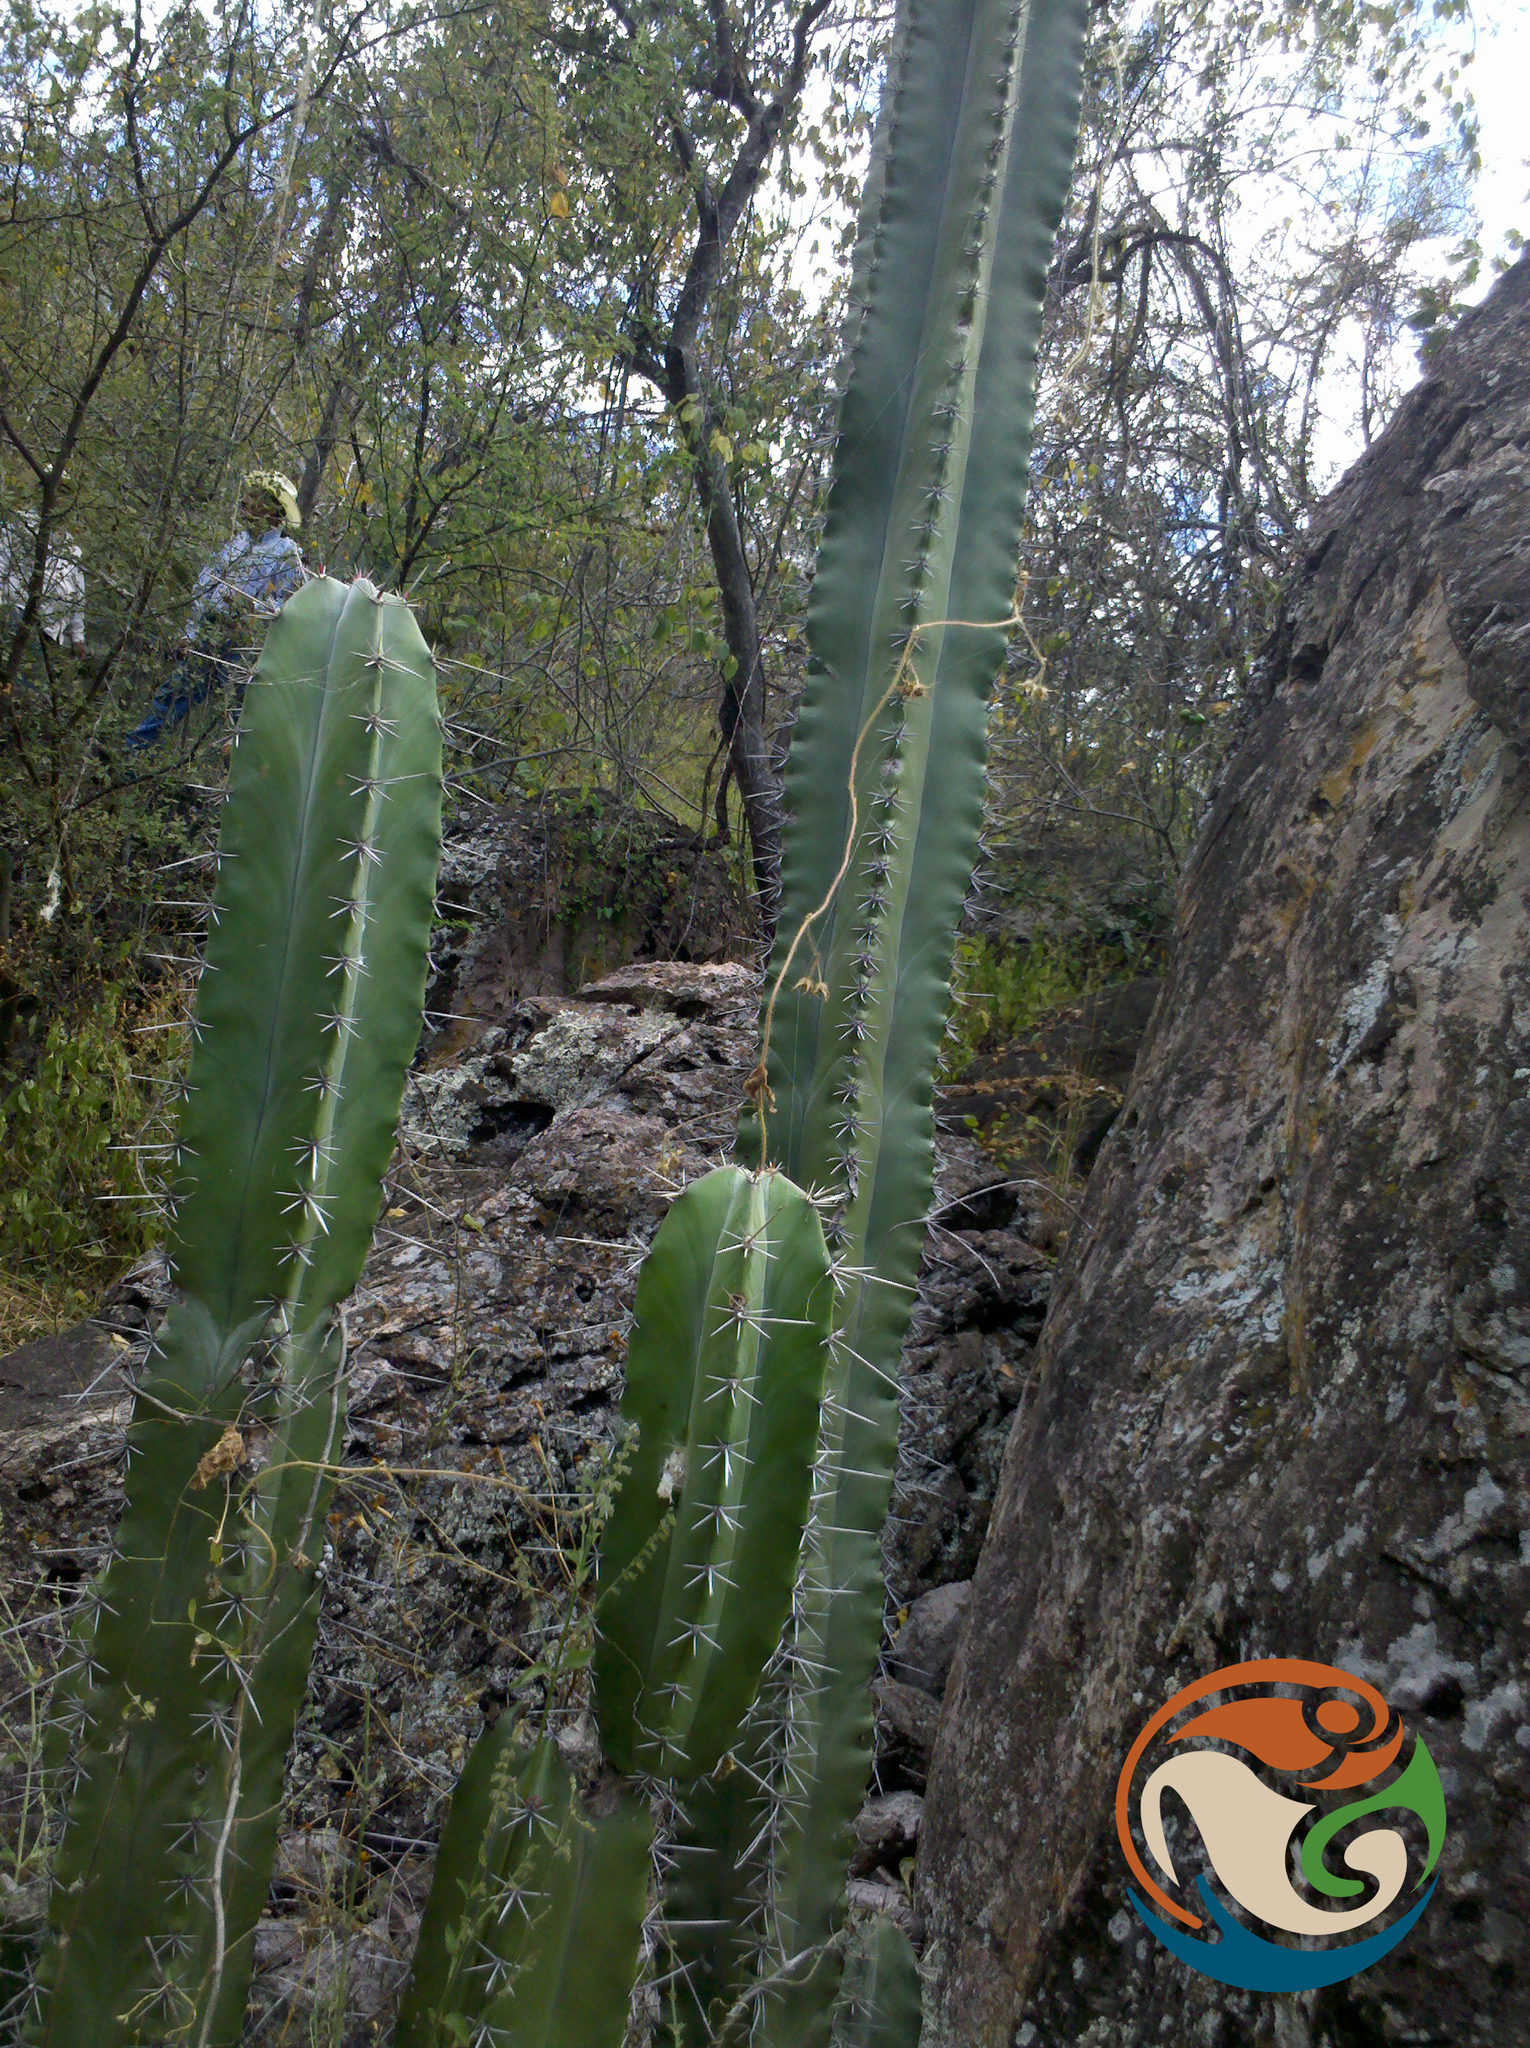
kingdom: Plantae
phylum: Tracheophyta
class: Magnoliopsida
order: Caryophyllales
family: Cactaceae
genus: Stenocereus
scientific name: Stenocereus pruinosus
